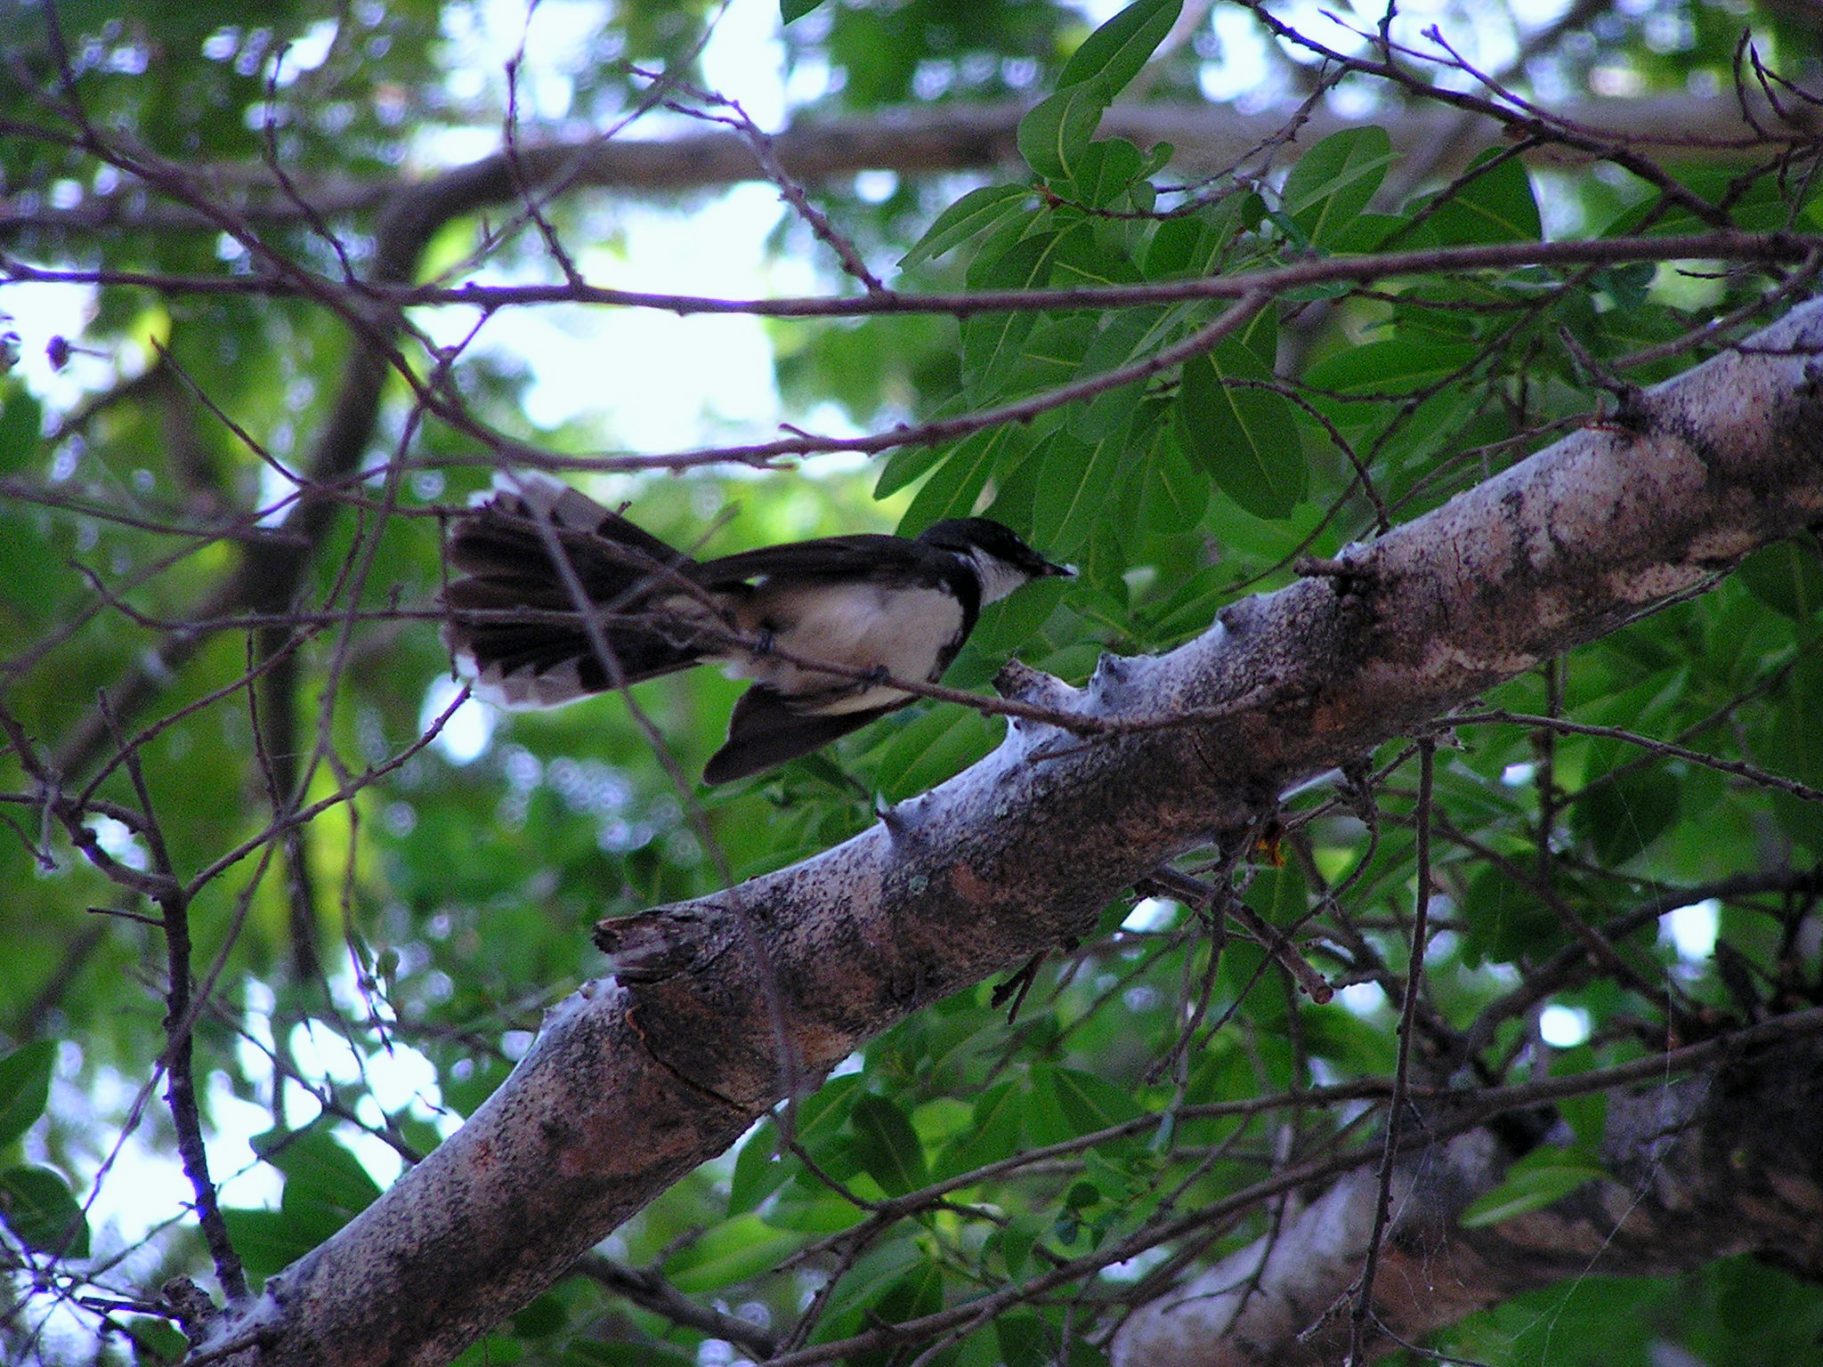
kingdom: Animalia
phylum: Chordata
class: Aves
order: Passeriformes
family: Rhipiduridae
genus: Rhipidura
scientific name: Rhipidura javanica
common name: Pied fantail
